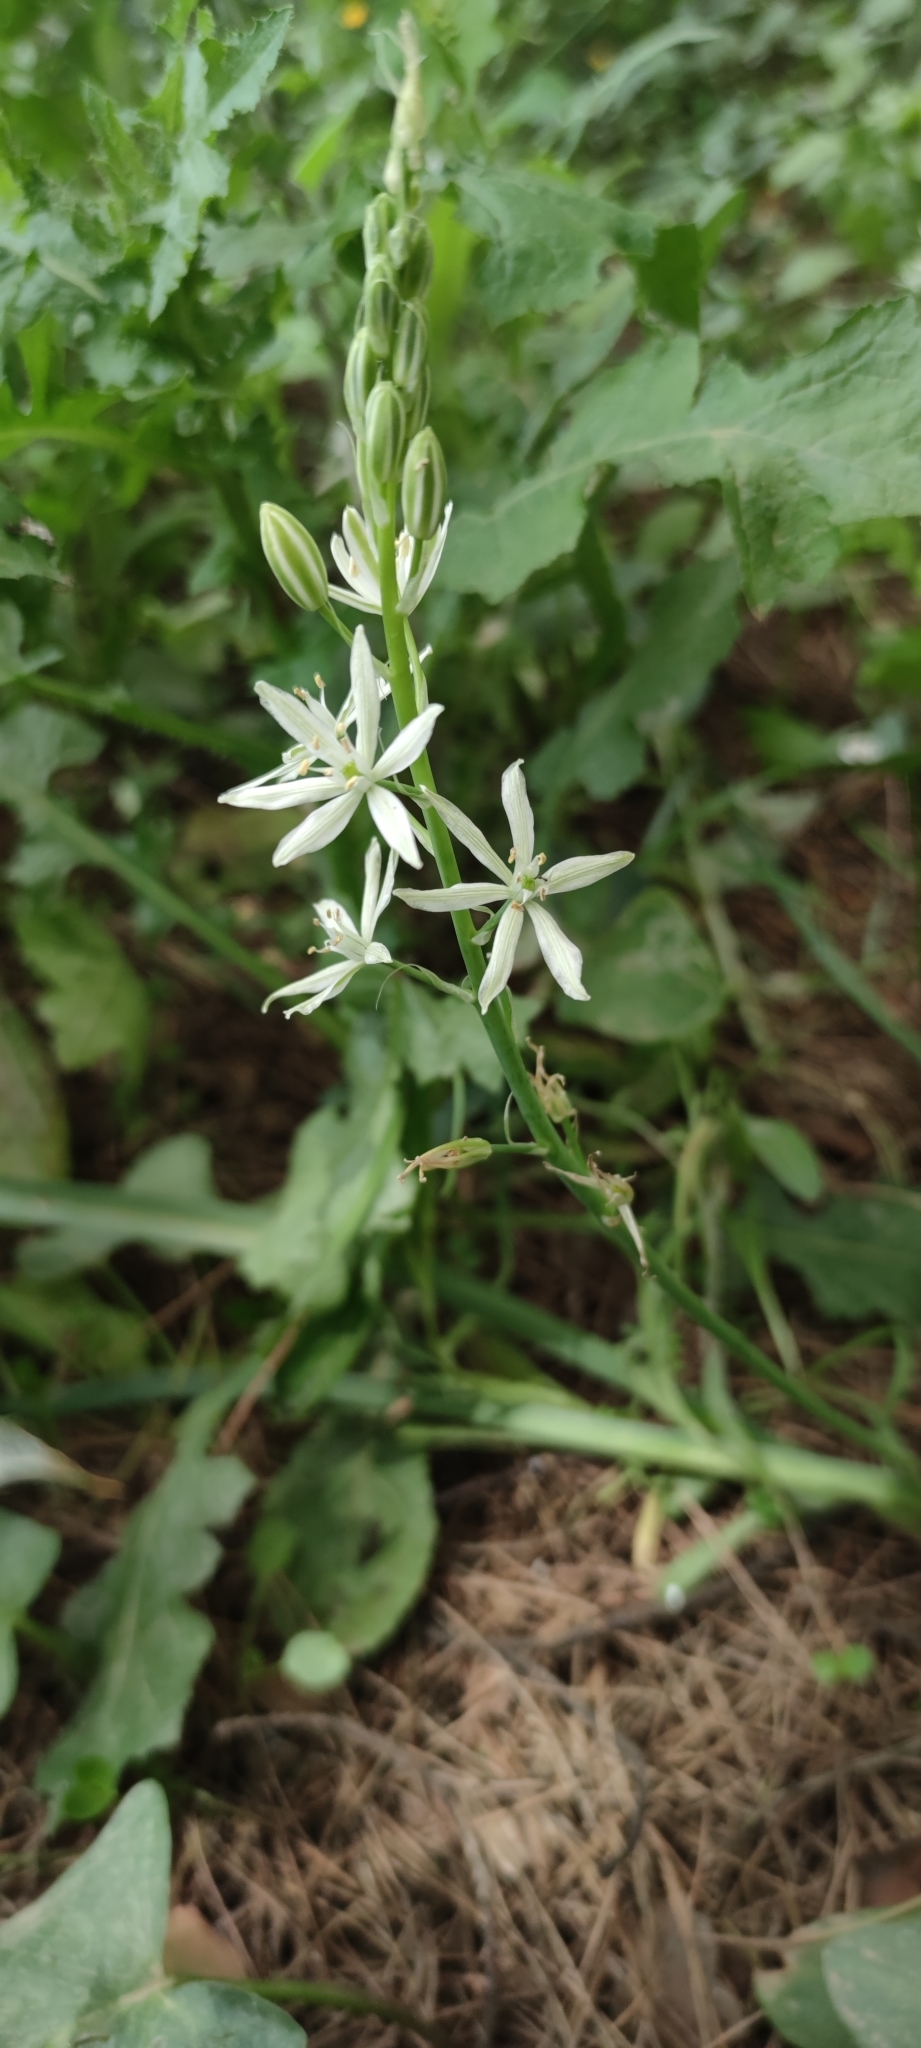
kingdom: Plantae
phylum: Tracheophyta
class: Liliopsida
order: Asparagales
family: Asparagaceae
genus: Ornithogalum
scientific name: Ornithogalum narbonense
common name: Bath-asparagus
